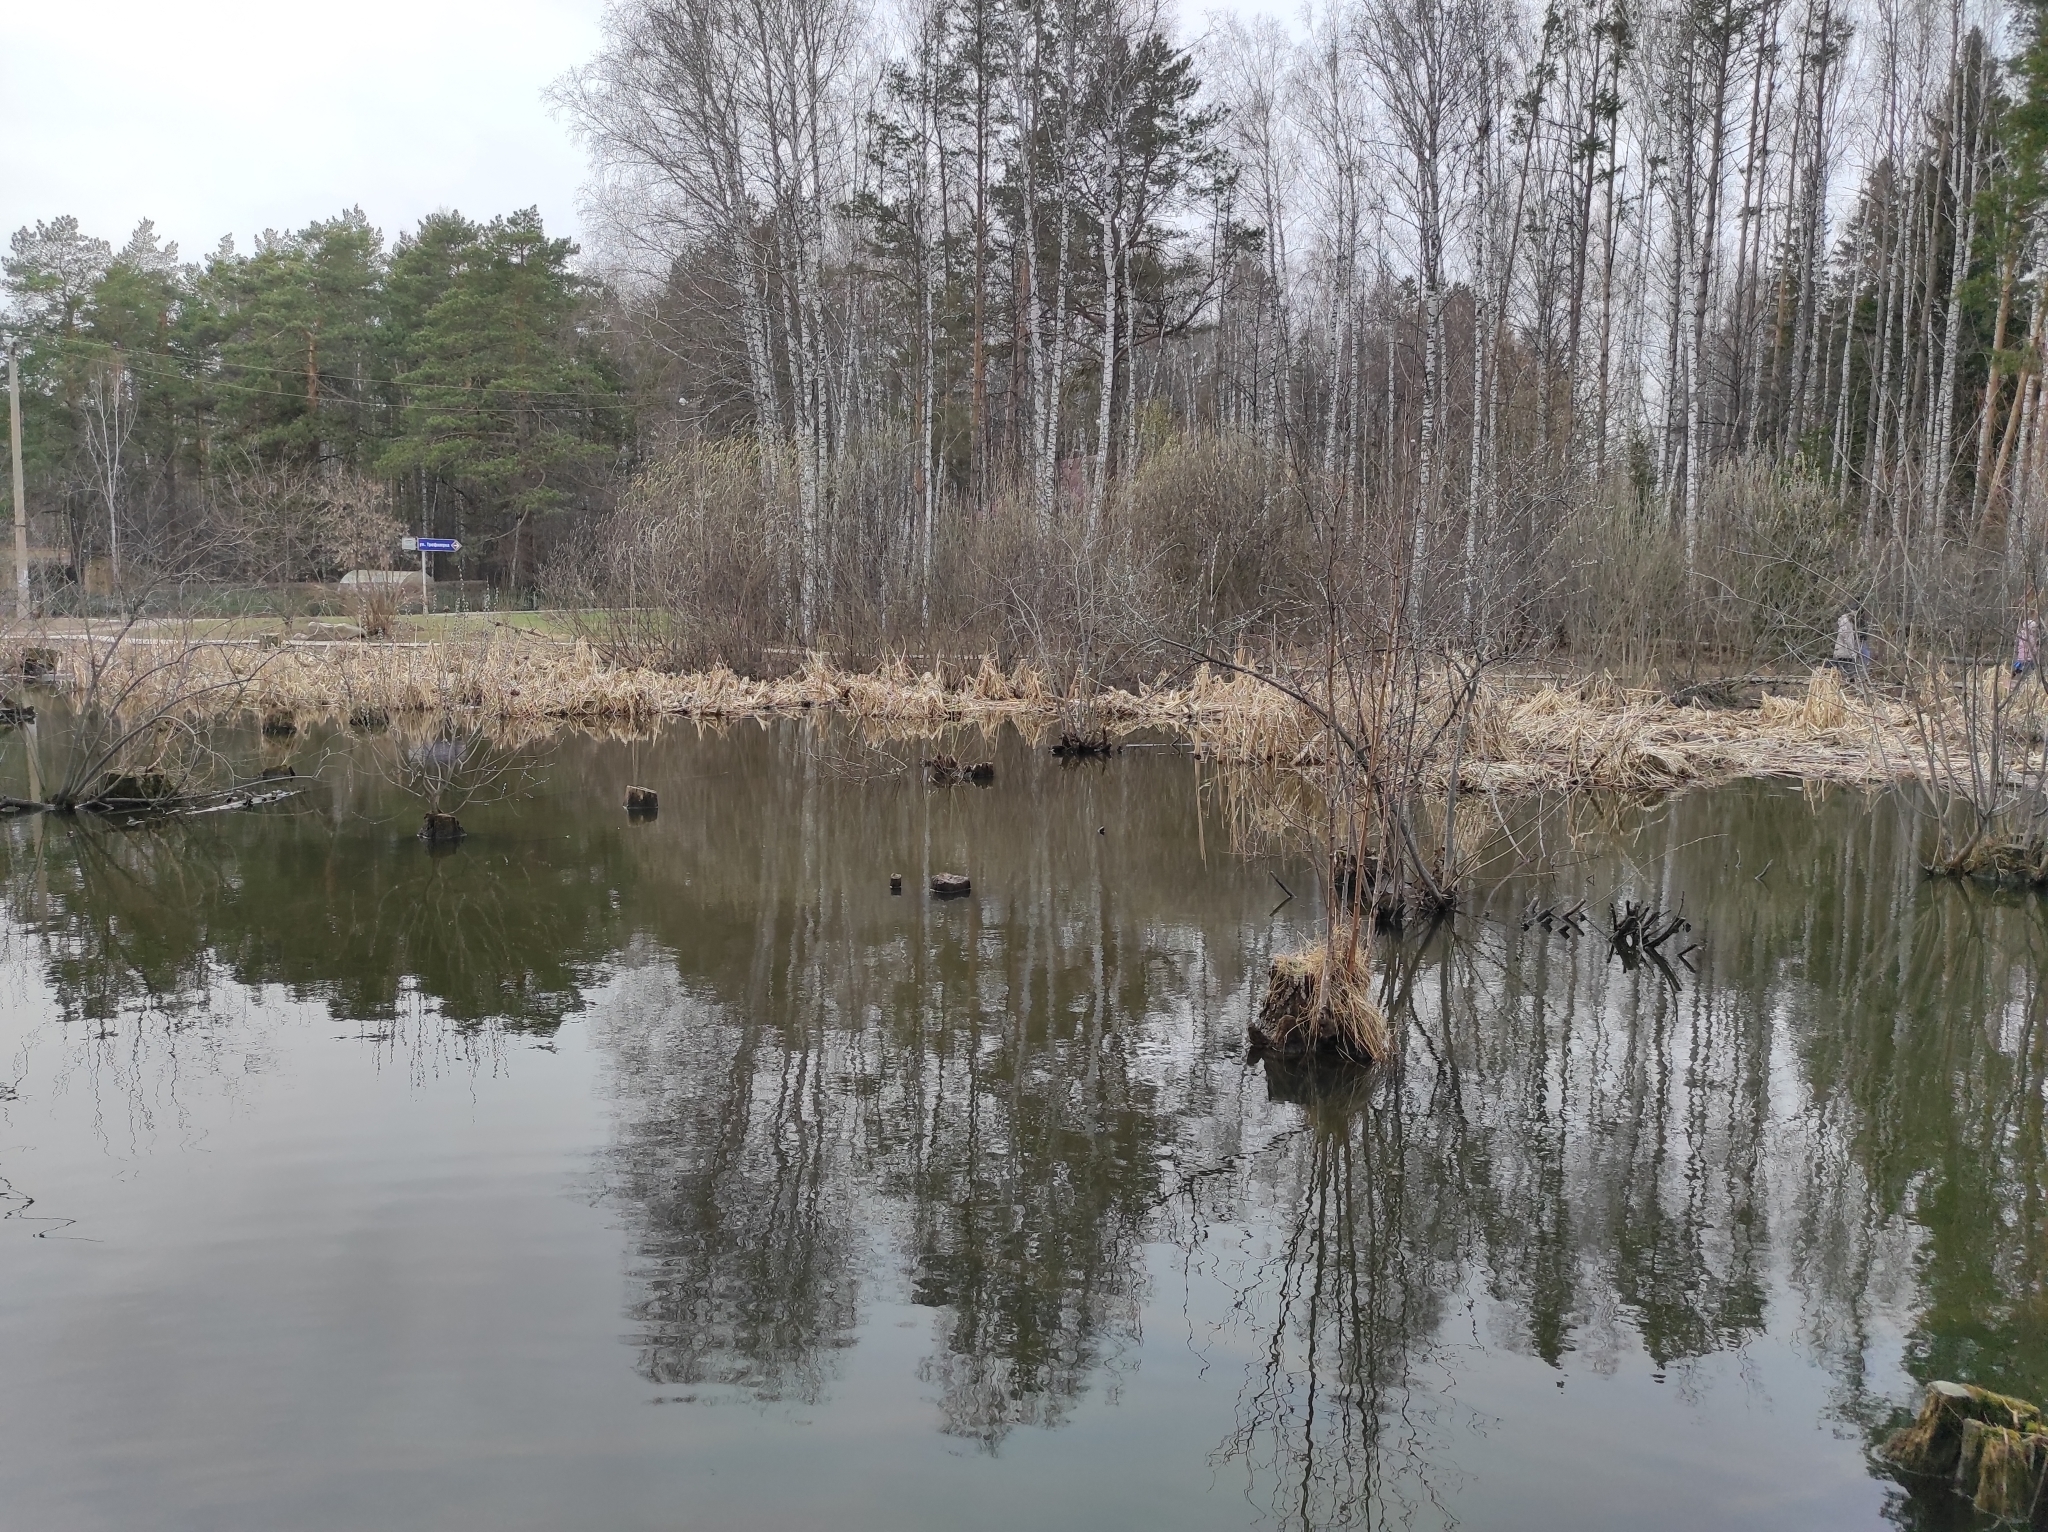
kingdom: Plantae
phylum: Tracheophyta
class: Magnoliopsida
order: Fagales
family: Betulaceae
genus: Betula
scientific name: Betula pendula
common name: Silver birch
